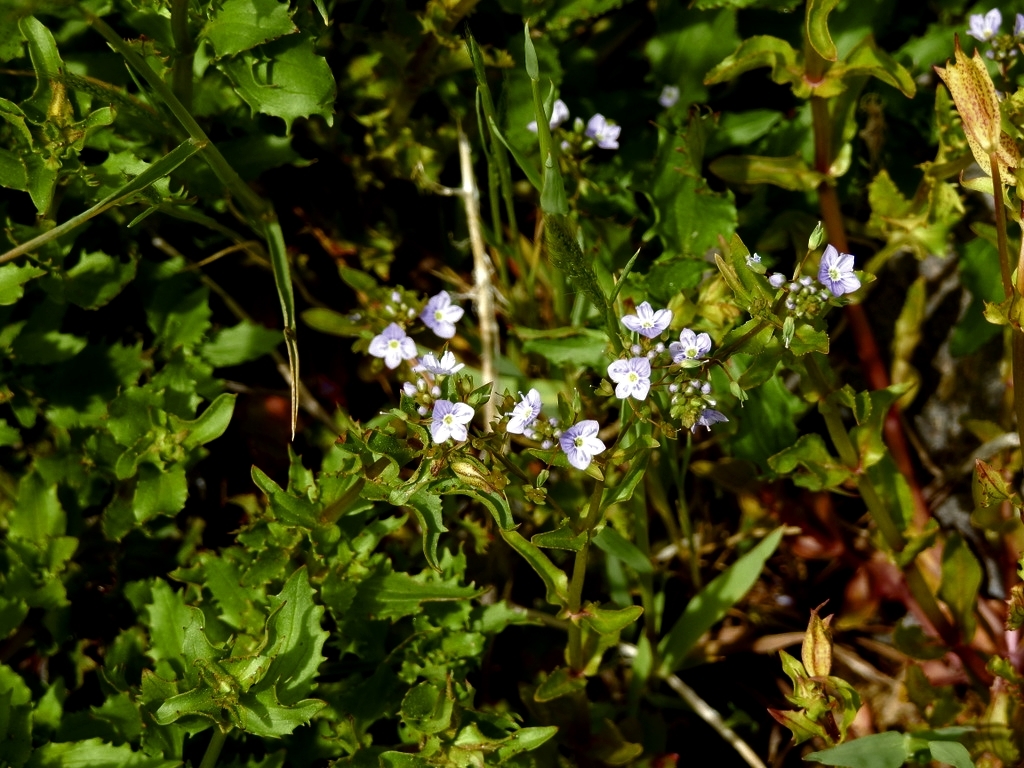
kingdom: Plantae
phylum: Tracheophyta
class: Magnoliopsida
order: Lamiales
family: Plantaginaceae
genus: Veronica
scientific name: Veronica anagallis-aquatica
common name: Water speedwell
